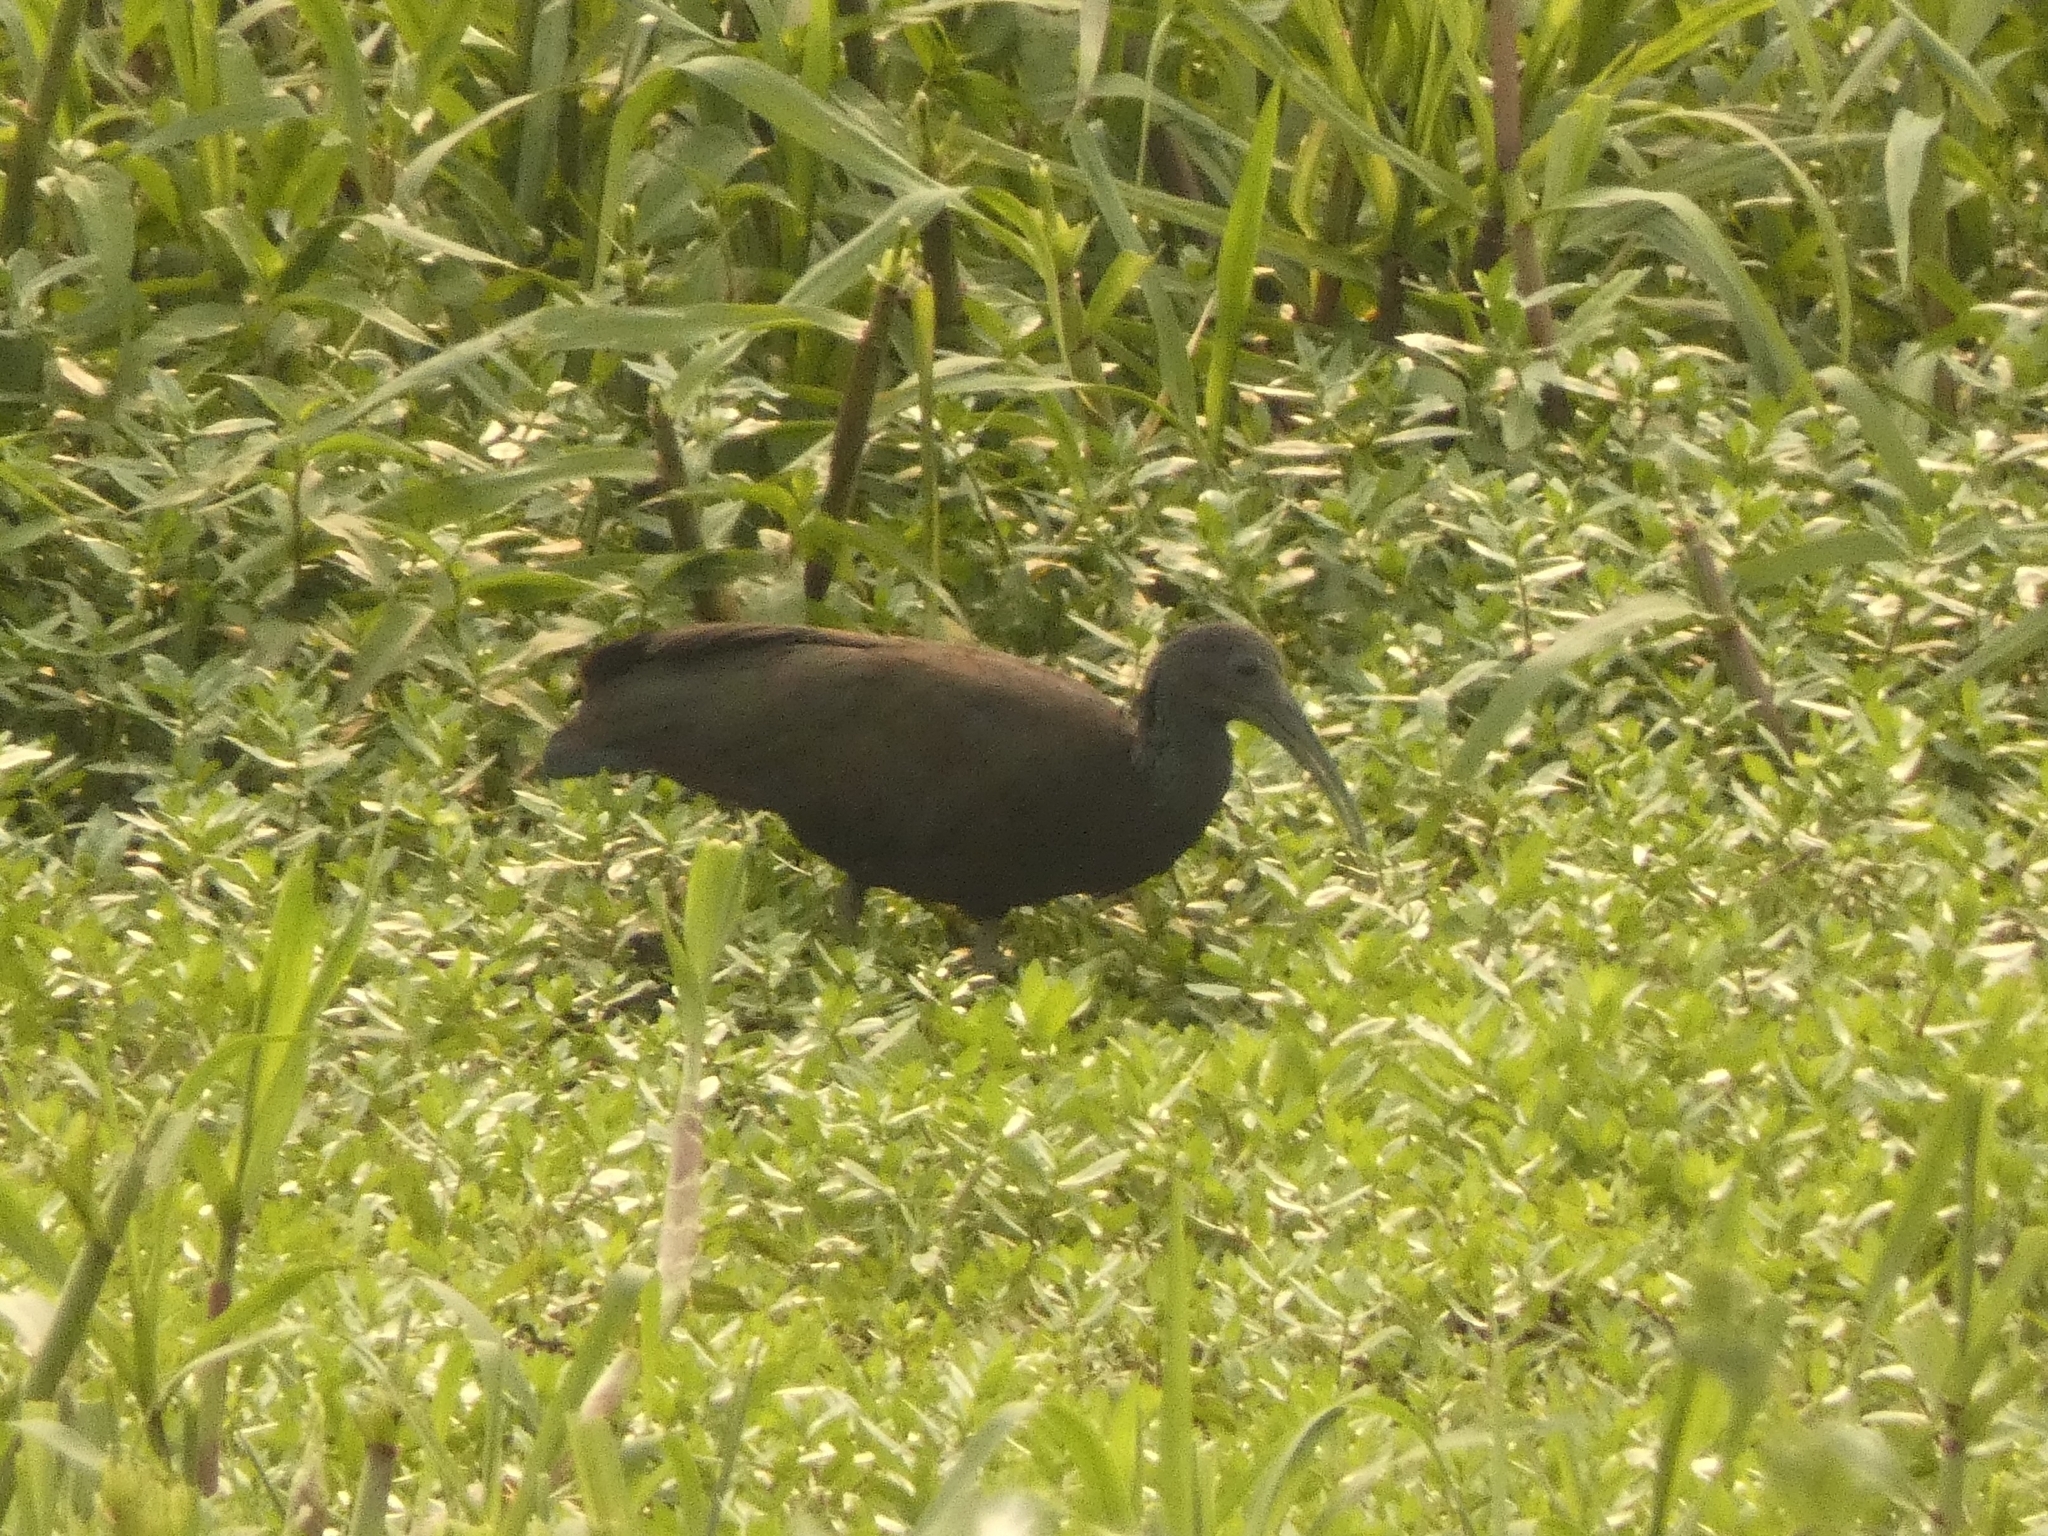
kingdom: Animalia
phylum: Chordata
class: Aves
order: Pelecaniformes
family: Threskiornithidae
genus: Mesembrinibis
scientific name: Mesembrinibis cayennensis
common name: Green ibis
